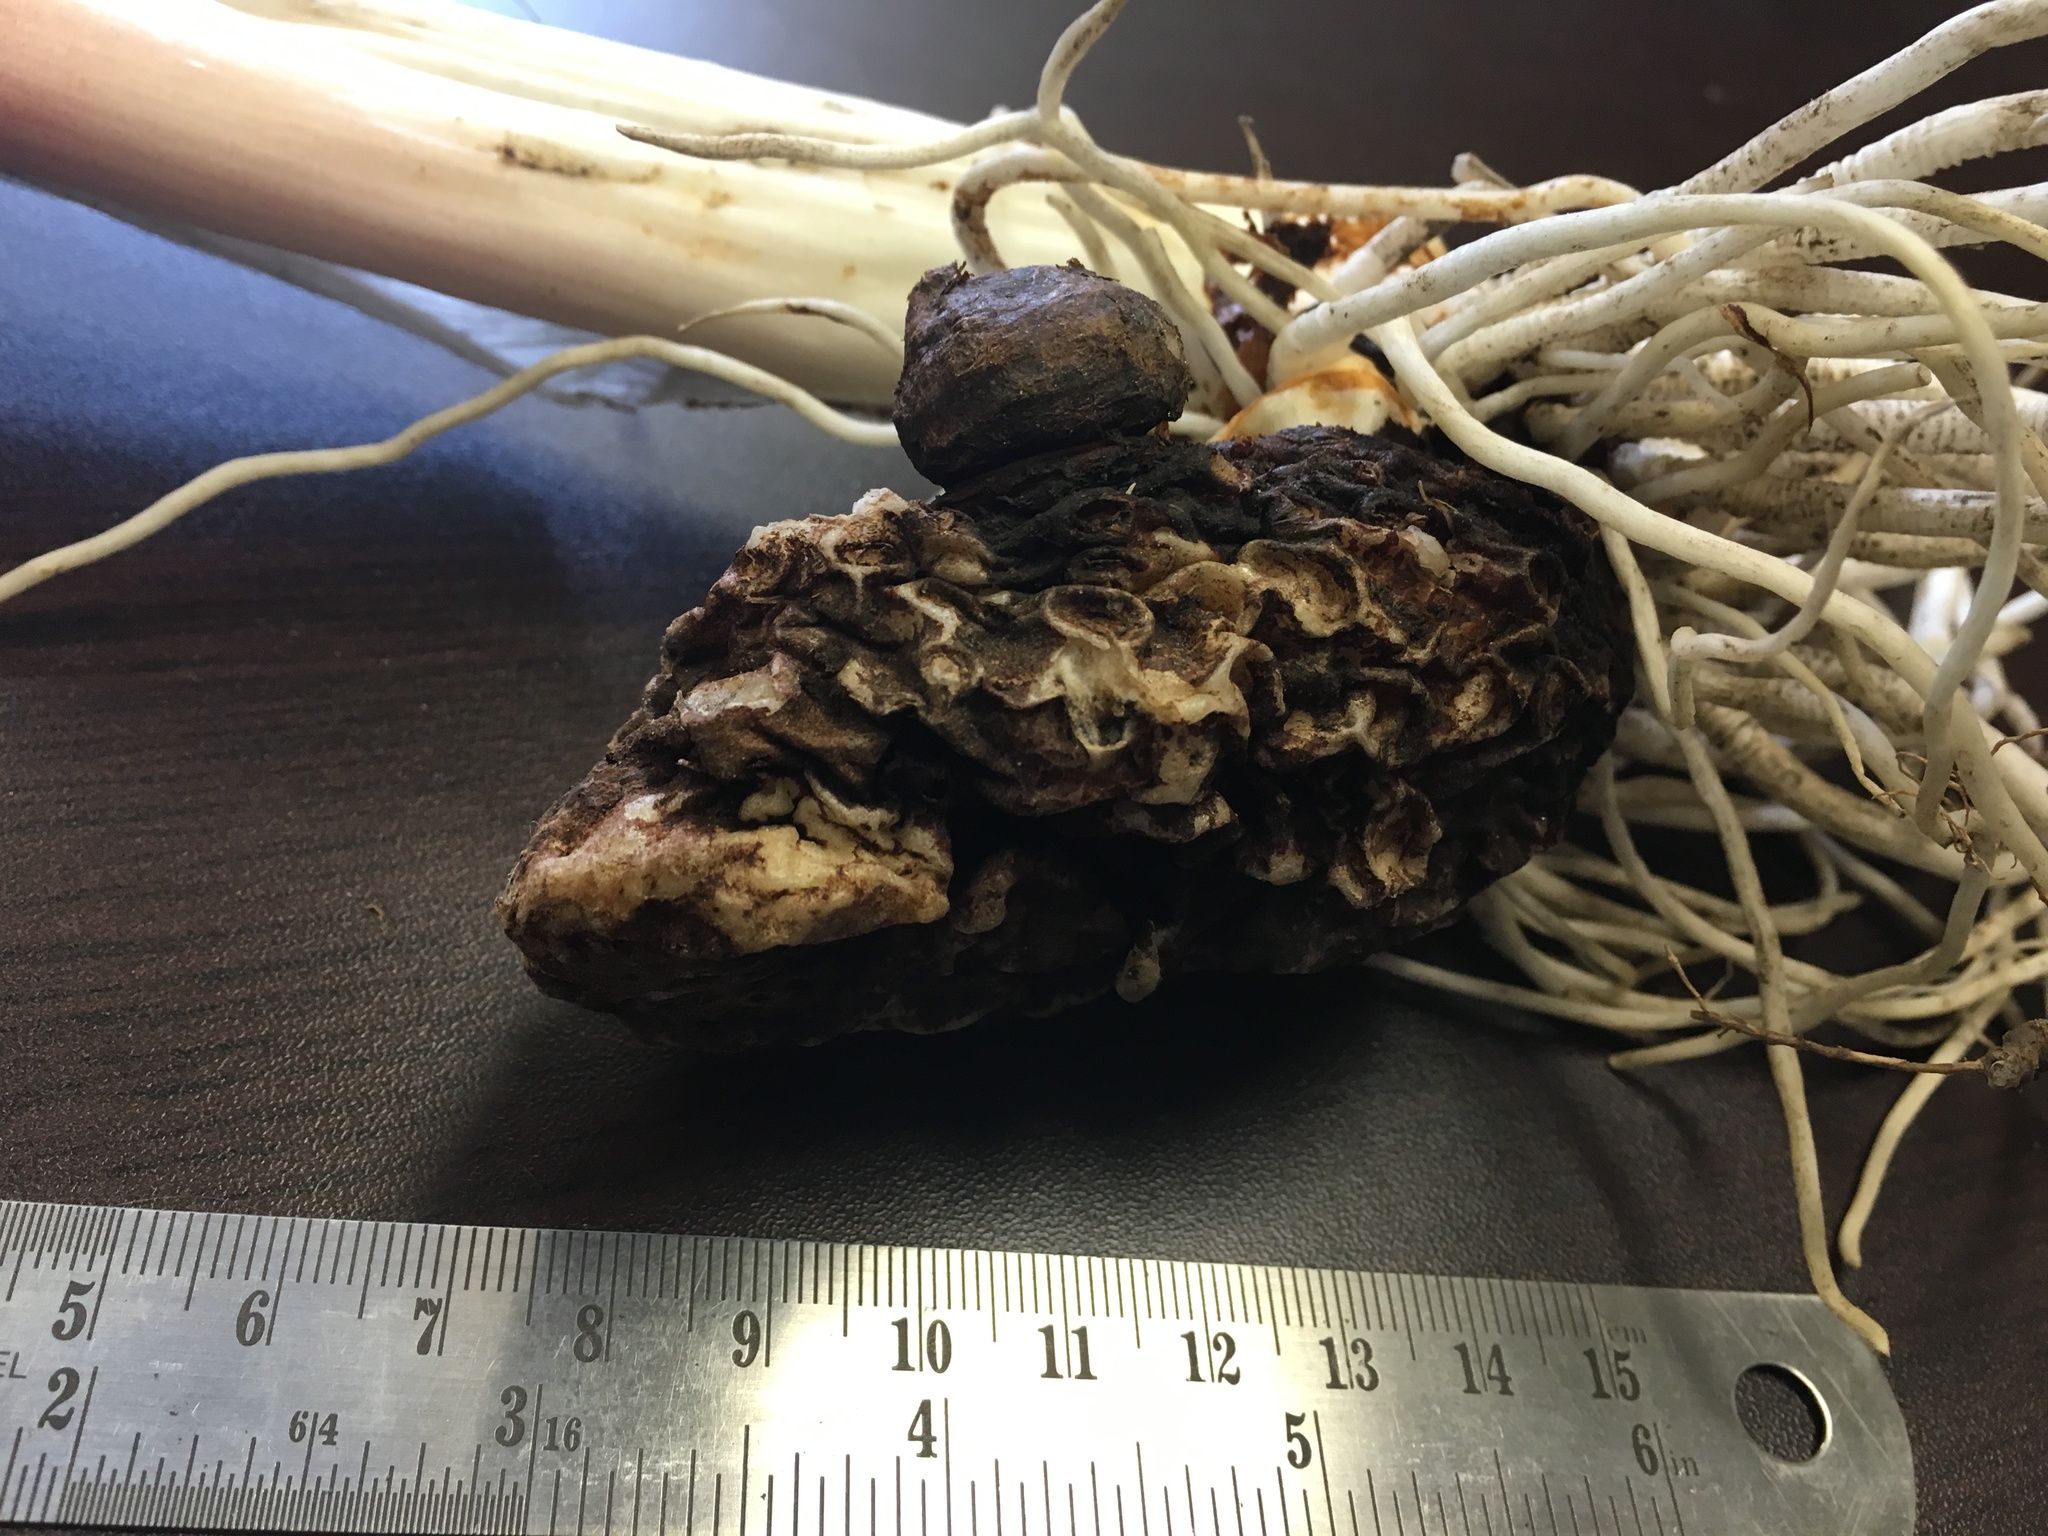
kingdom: Plantae
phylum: Tracheophyta
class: Liliopsida
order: Alismatales
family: Araceae
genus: Arum
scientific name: Arum italicum
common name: Italian lords-and-ladies
